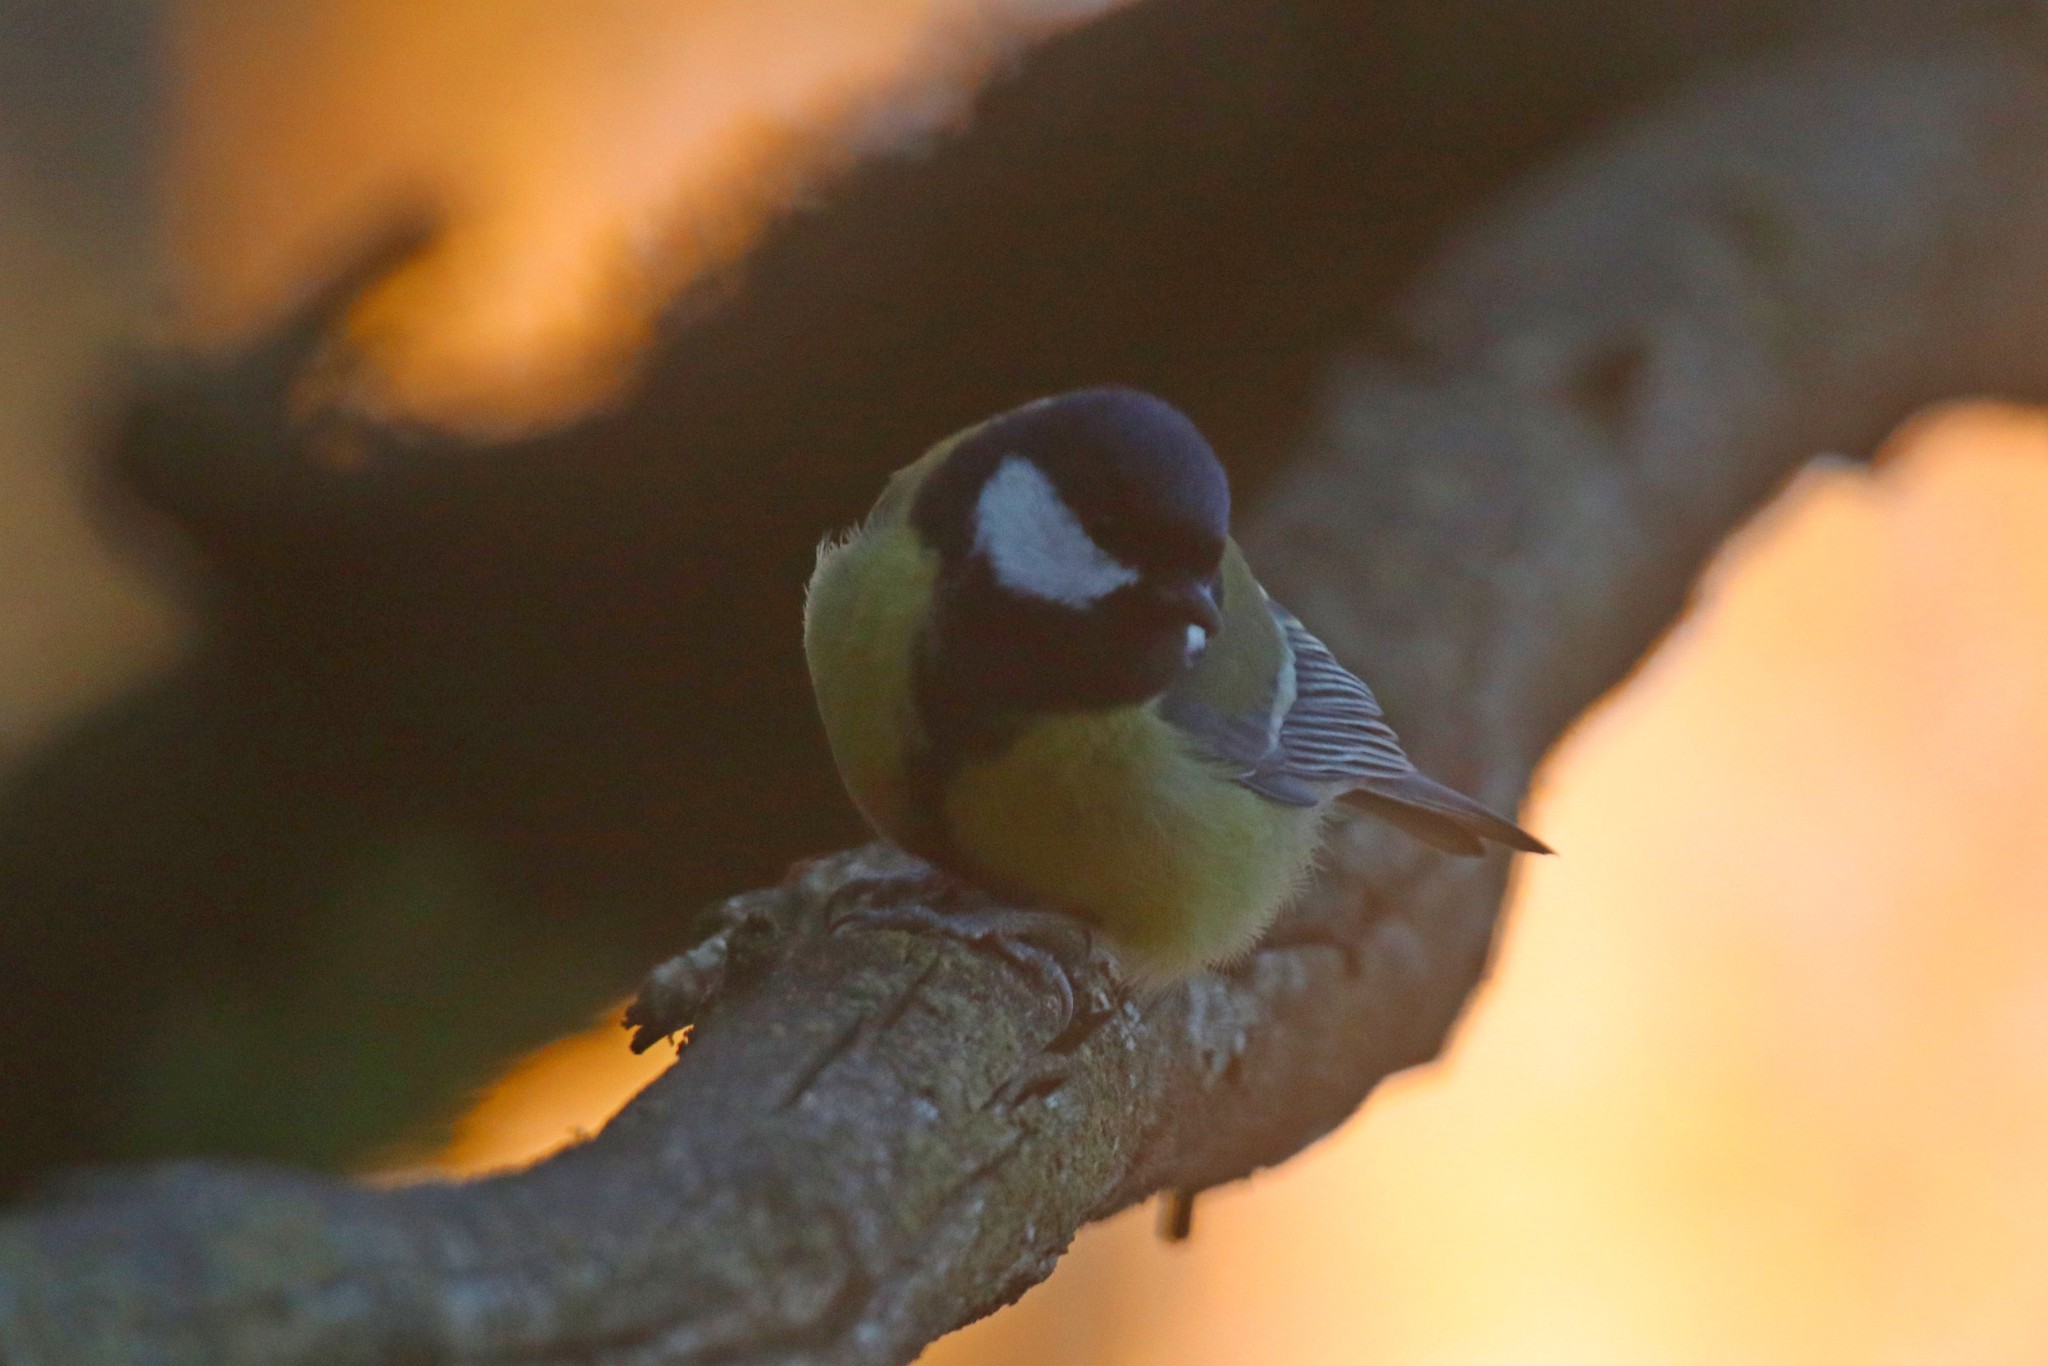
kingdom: Animalia
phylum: Chordata
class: Aves
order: Passeriformes
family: Paridae
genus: Parus
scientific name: Parus major
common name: Great tit
